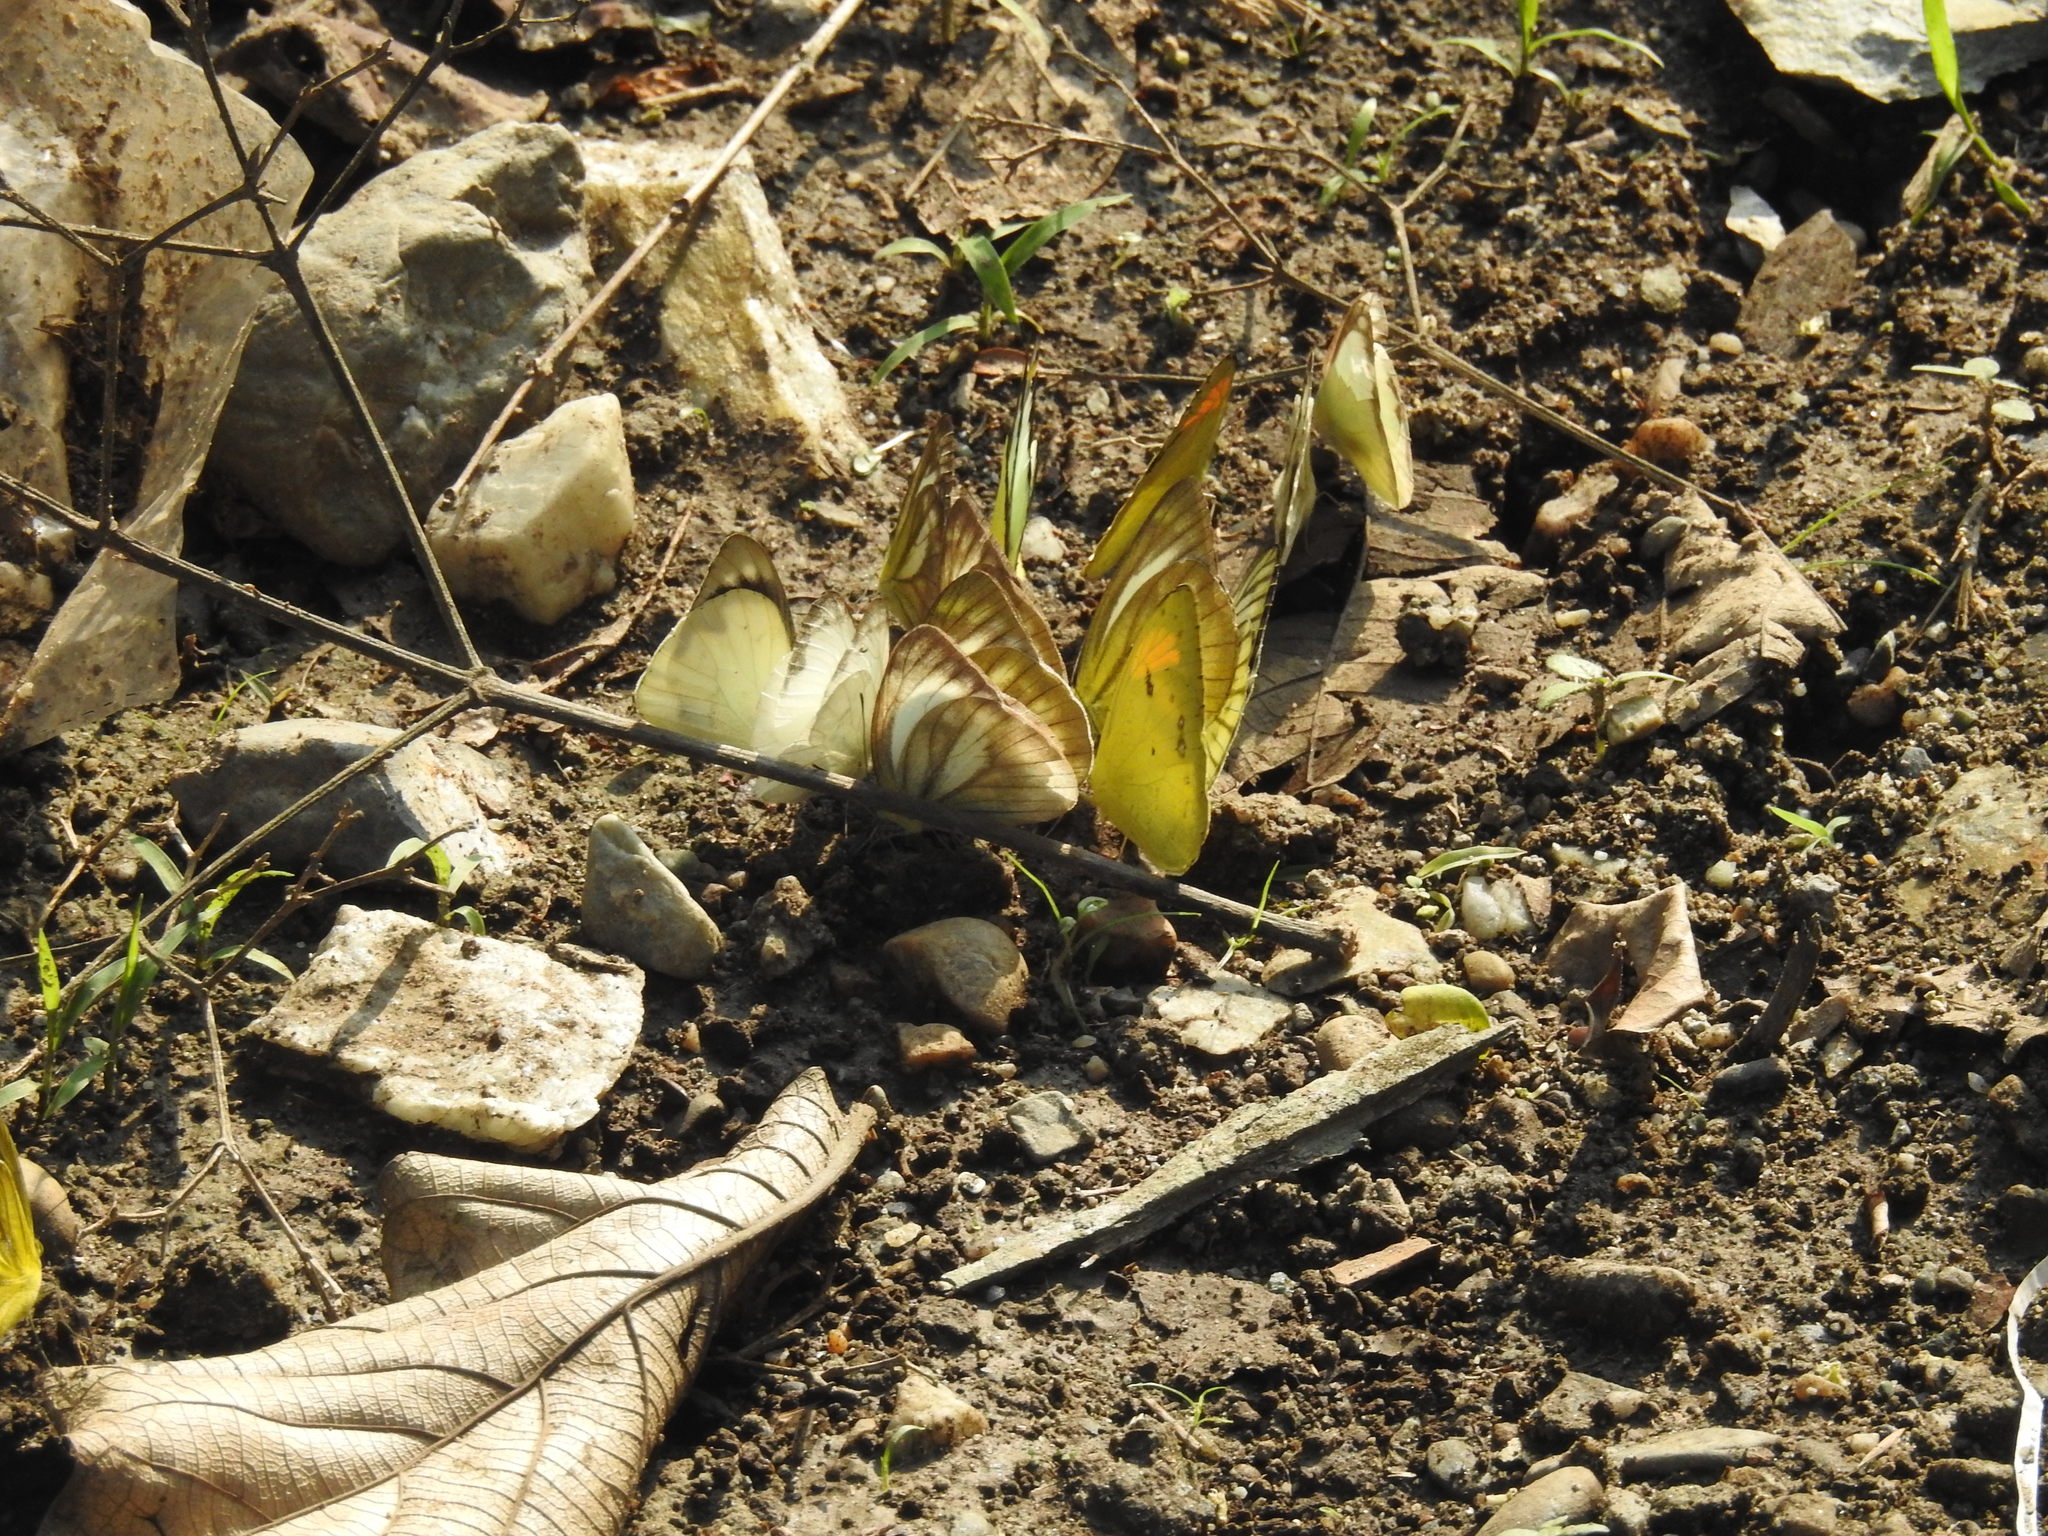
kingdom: Animalia
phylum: Arthropoda
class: Insecta
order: Lepidoptera
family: Pieridae
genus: Cepora
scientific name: Cepora nadina
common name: Lesser gull
